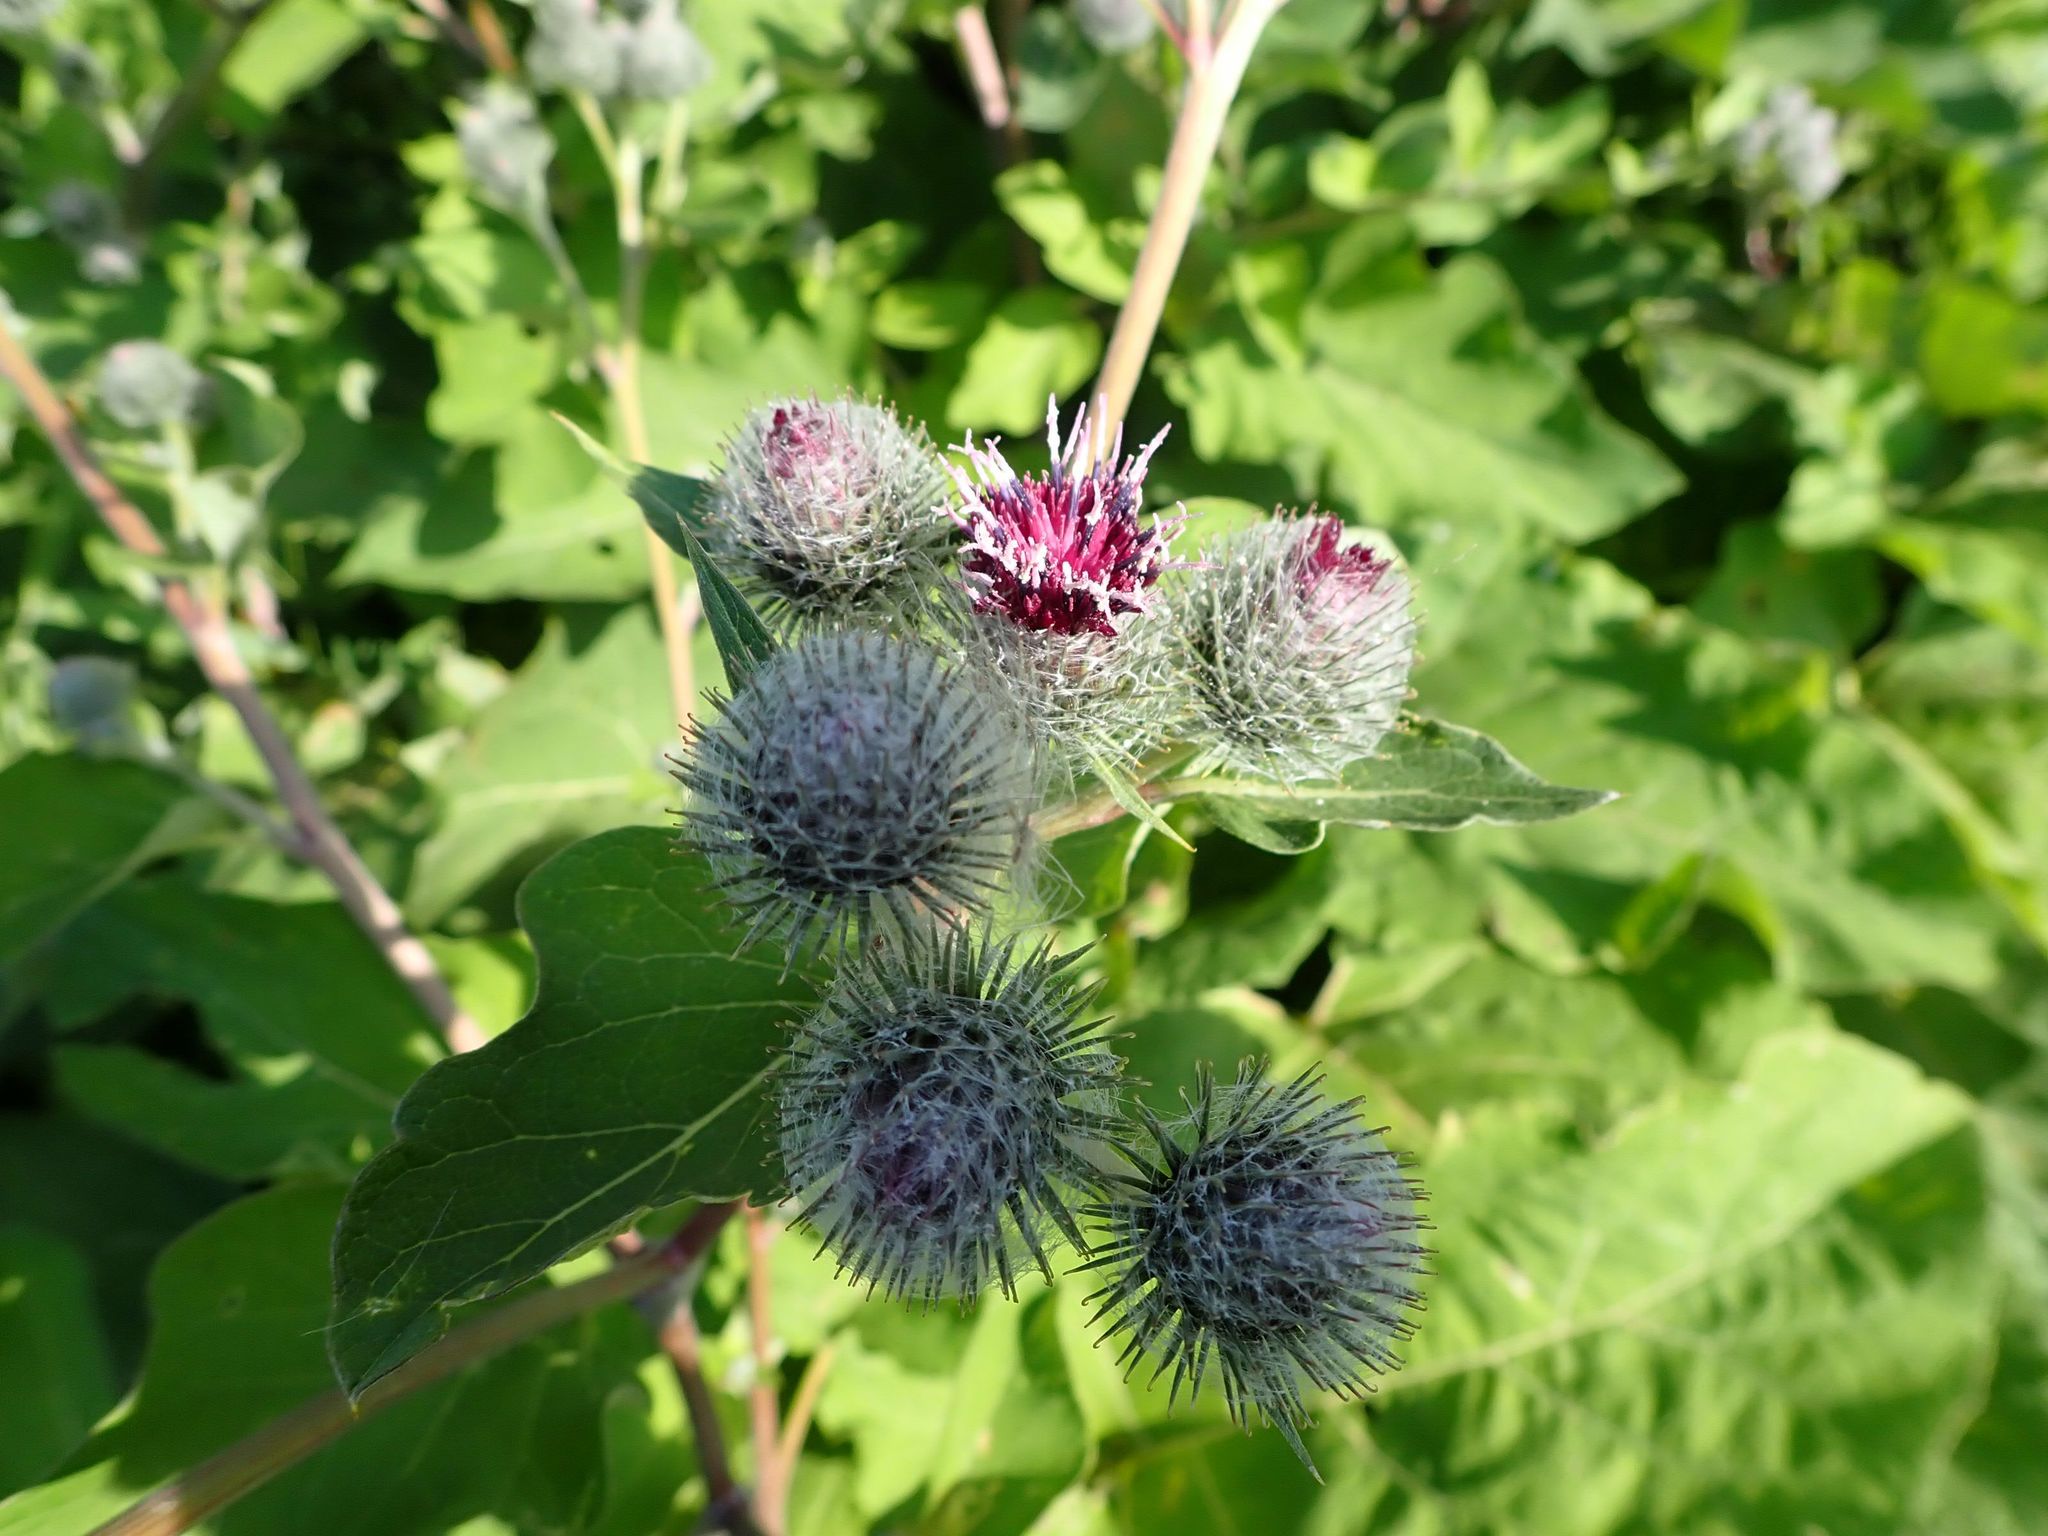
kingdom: Plantae
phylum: Tracheophyta
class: Magnoliopsida
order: Asterales
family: Asteraceae
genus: Arctium
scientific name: Arctium tomentosum
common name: Woolly burdock
